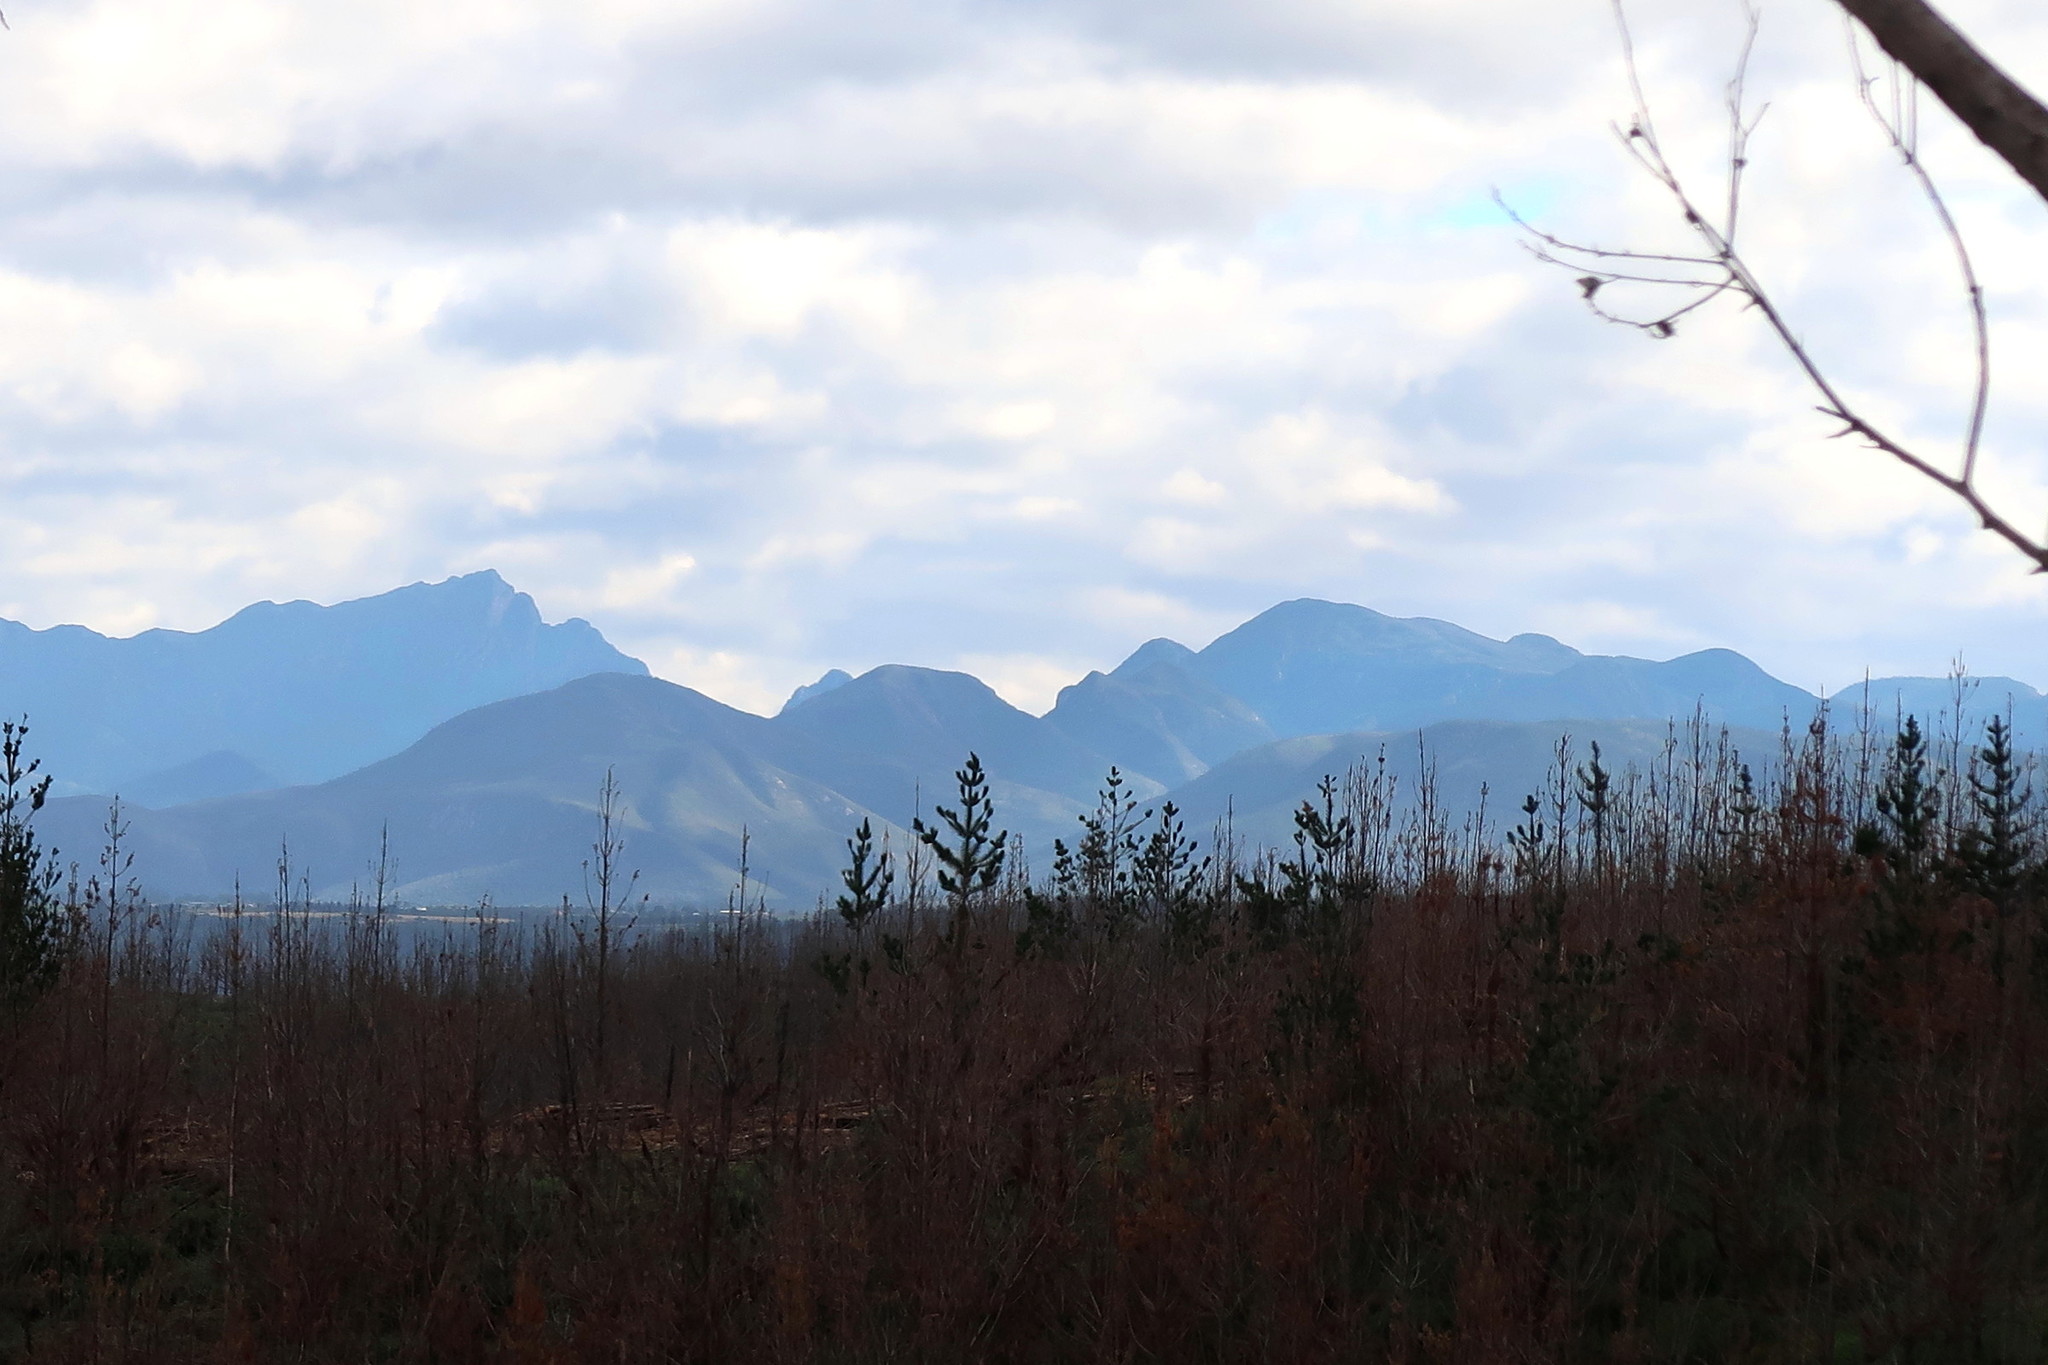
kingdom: Plantae
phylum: Tracheophyta
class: Pinopsida
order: Pinales
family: Pinaceae
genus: Pinus
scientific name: Pinus radiata
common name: Monterey pine
